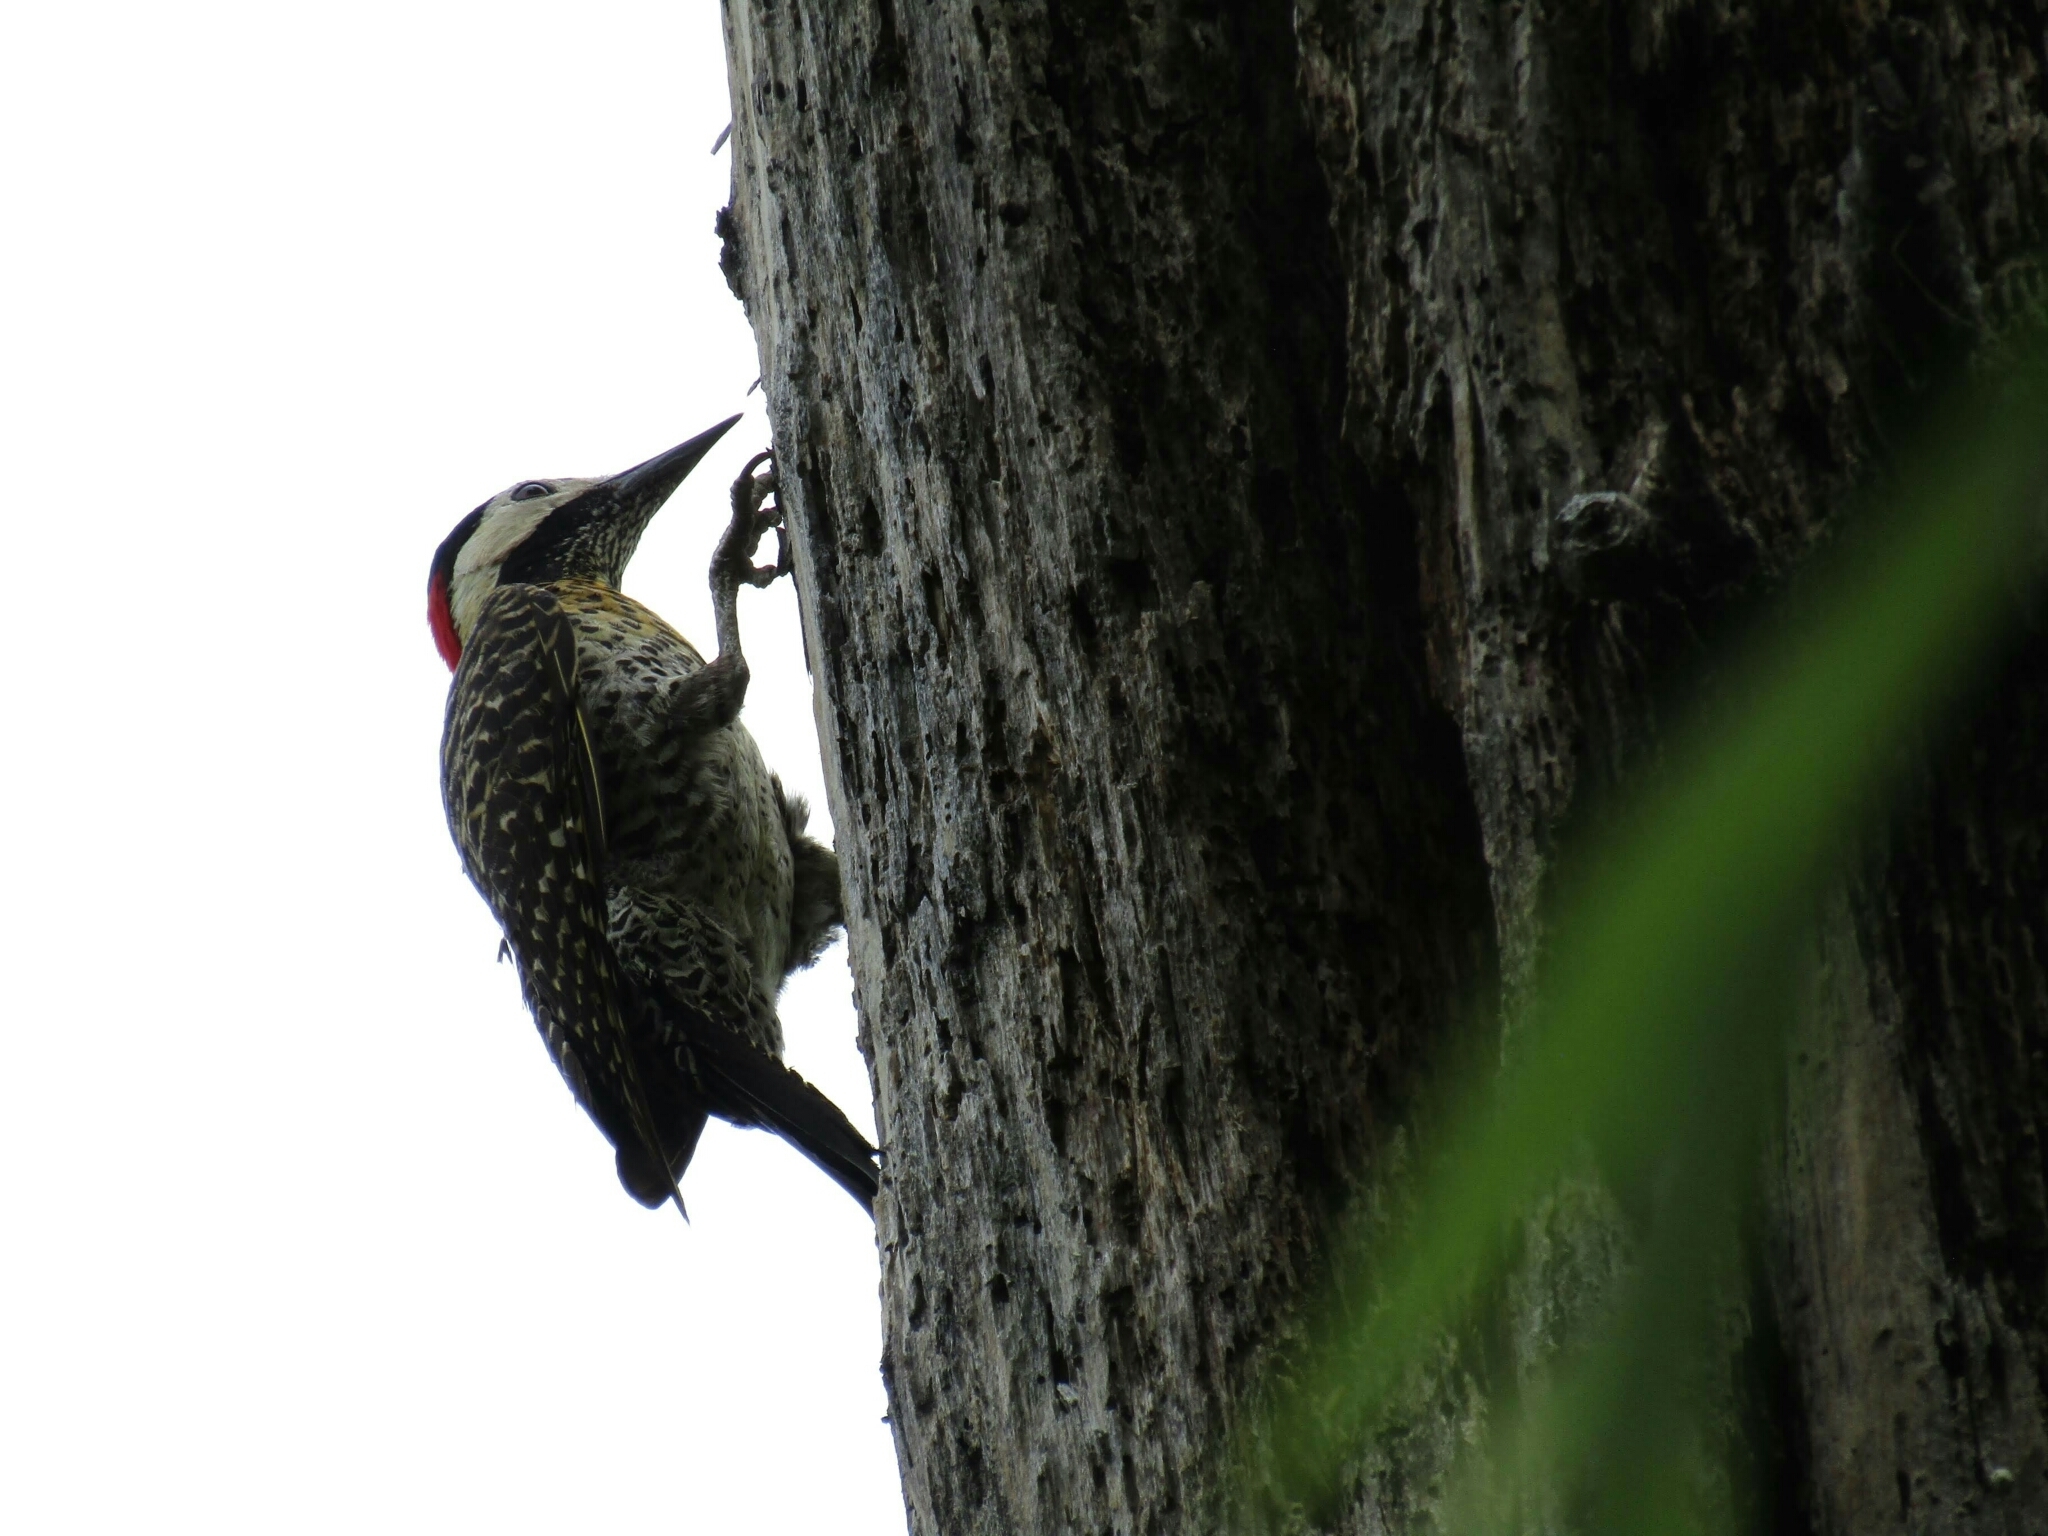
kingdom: Animalia
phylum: Chordata
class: Aves
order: Piciformes
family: Picidae
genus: Colaptes
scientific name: Colaptes melanochloros
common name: Green-barred woodpecker
